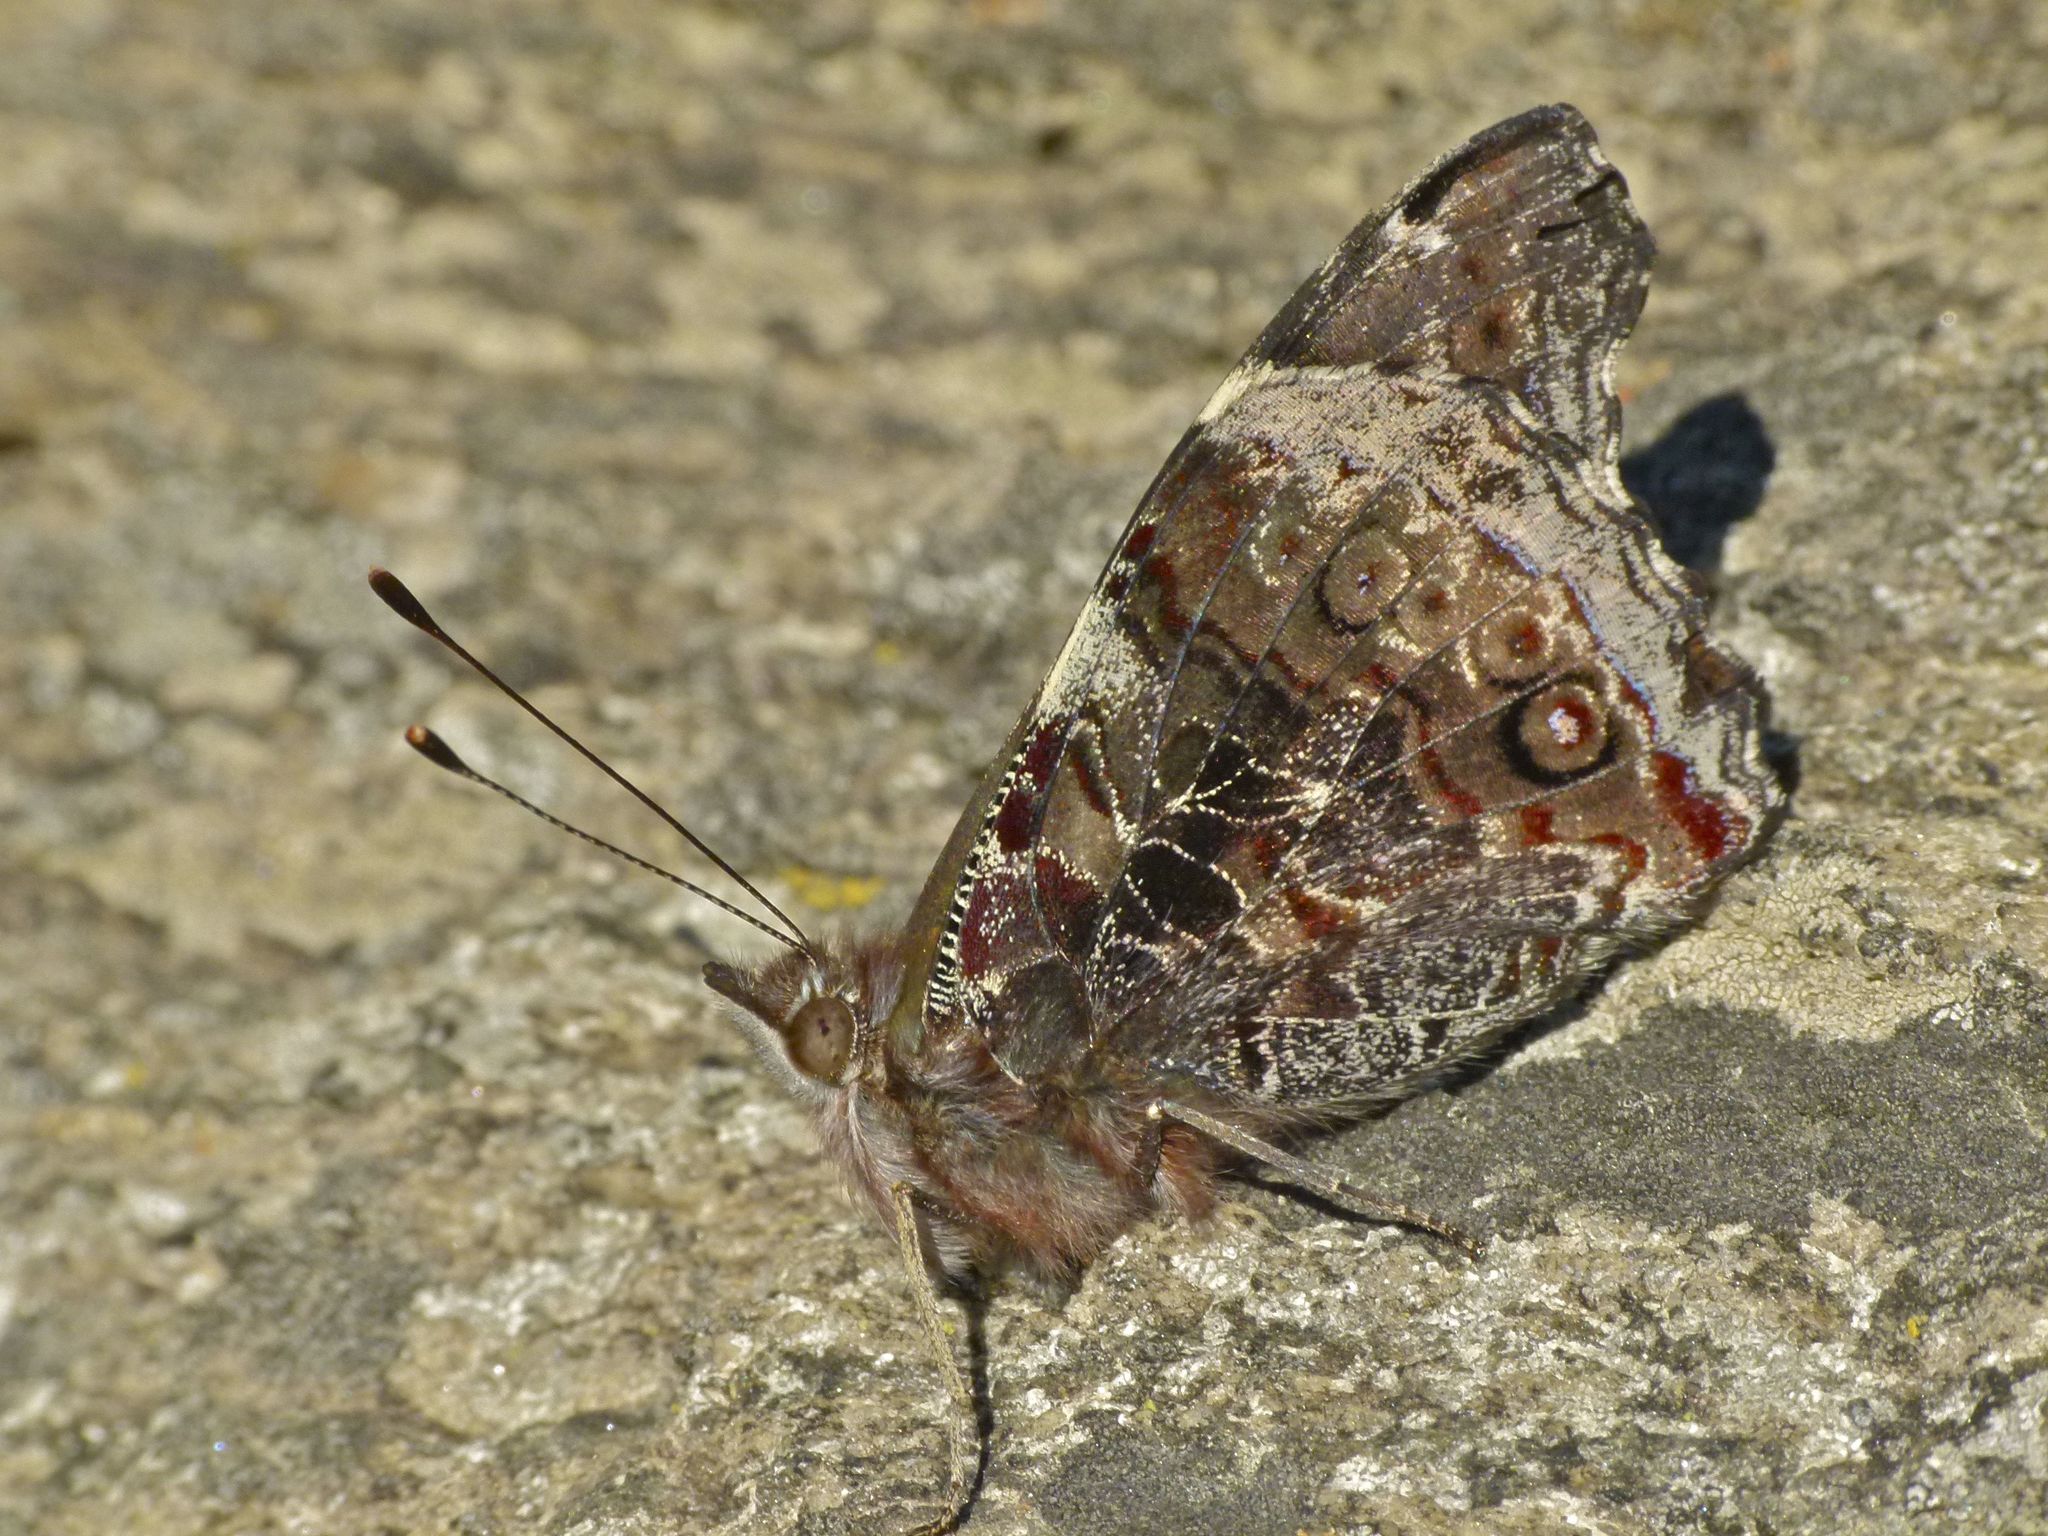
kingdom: Animalia
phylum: Arthropoda
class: Insecta
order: Lepidoptera
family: Nymphalidae
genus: Vanessa
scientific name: Vanessa itea
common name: Yellow admiral
